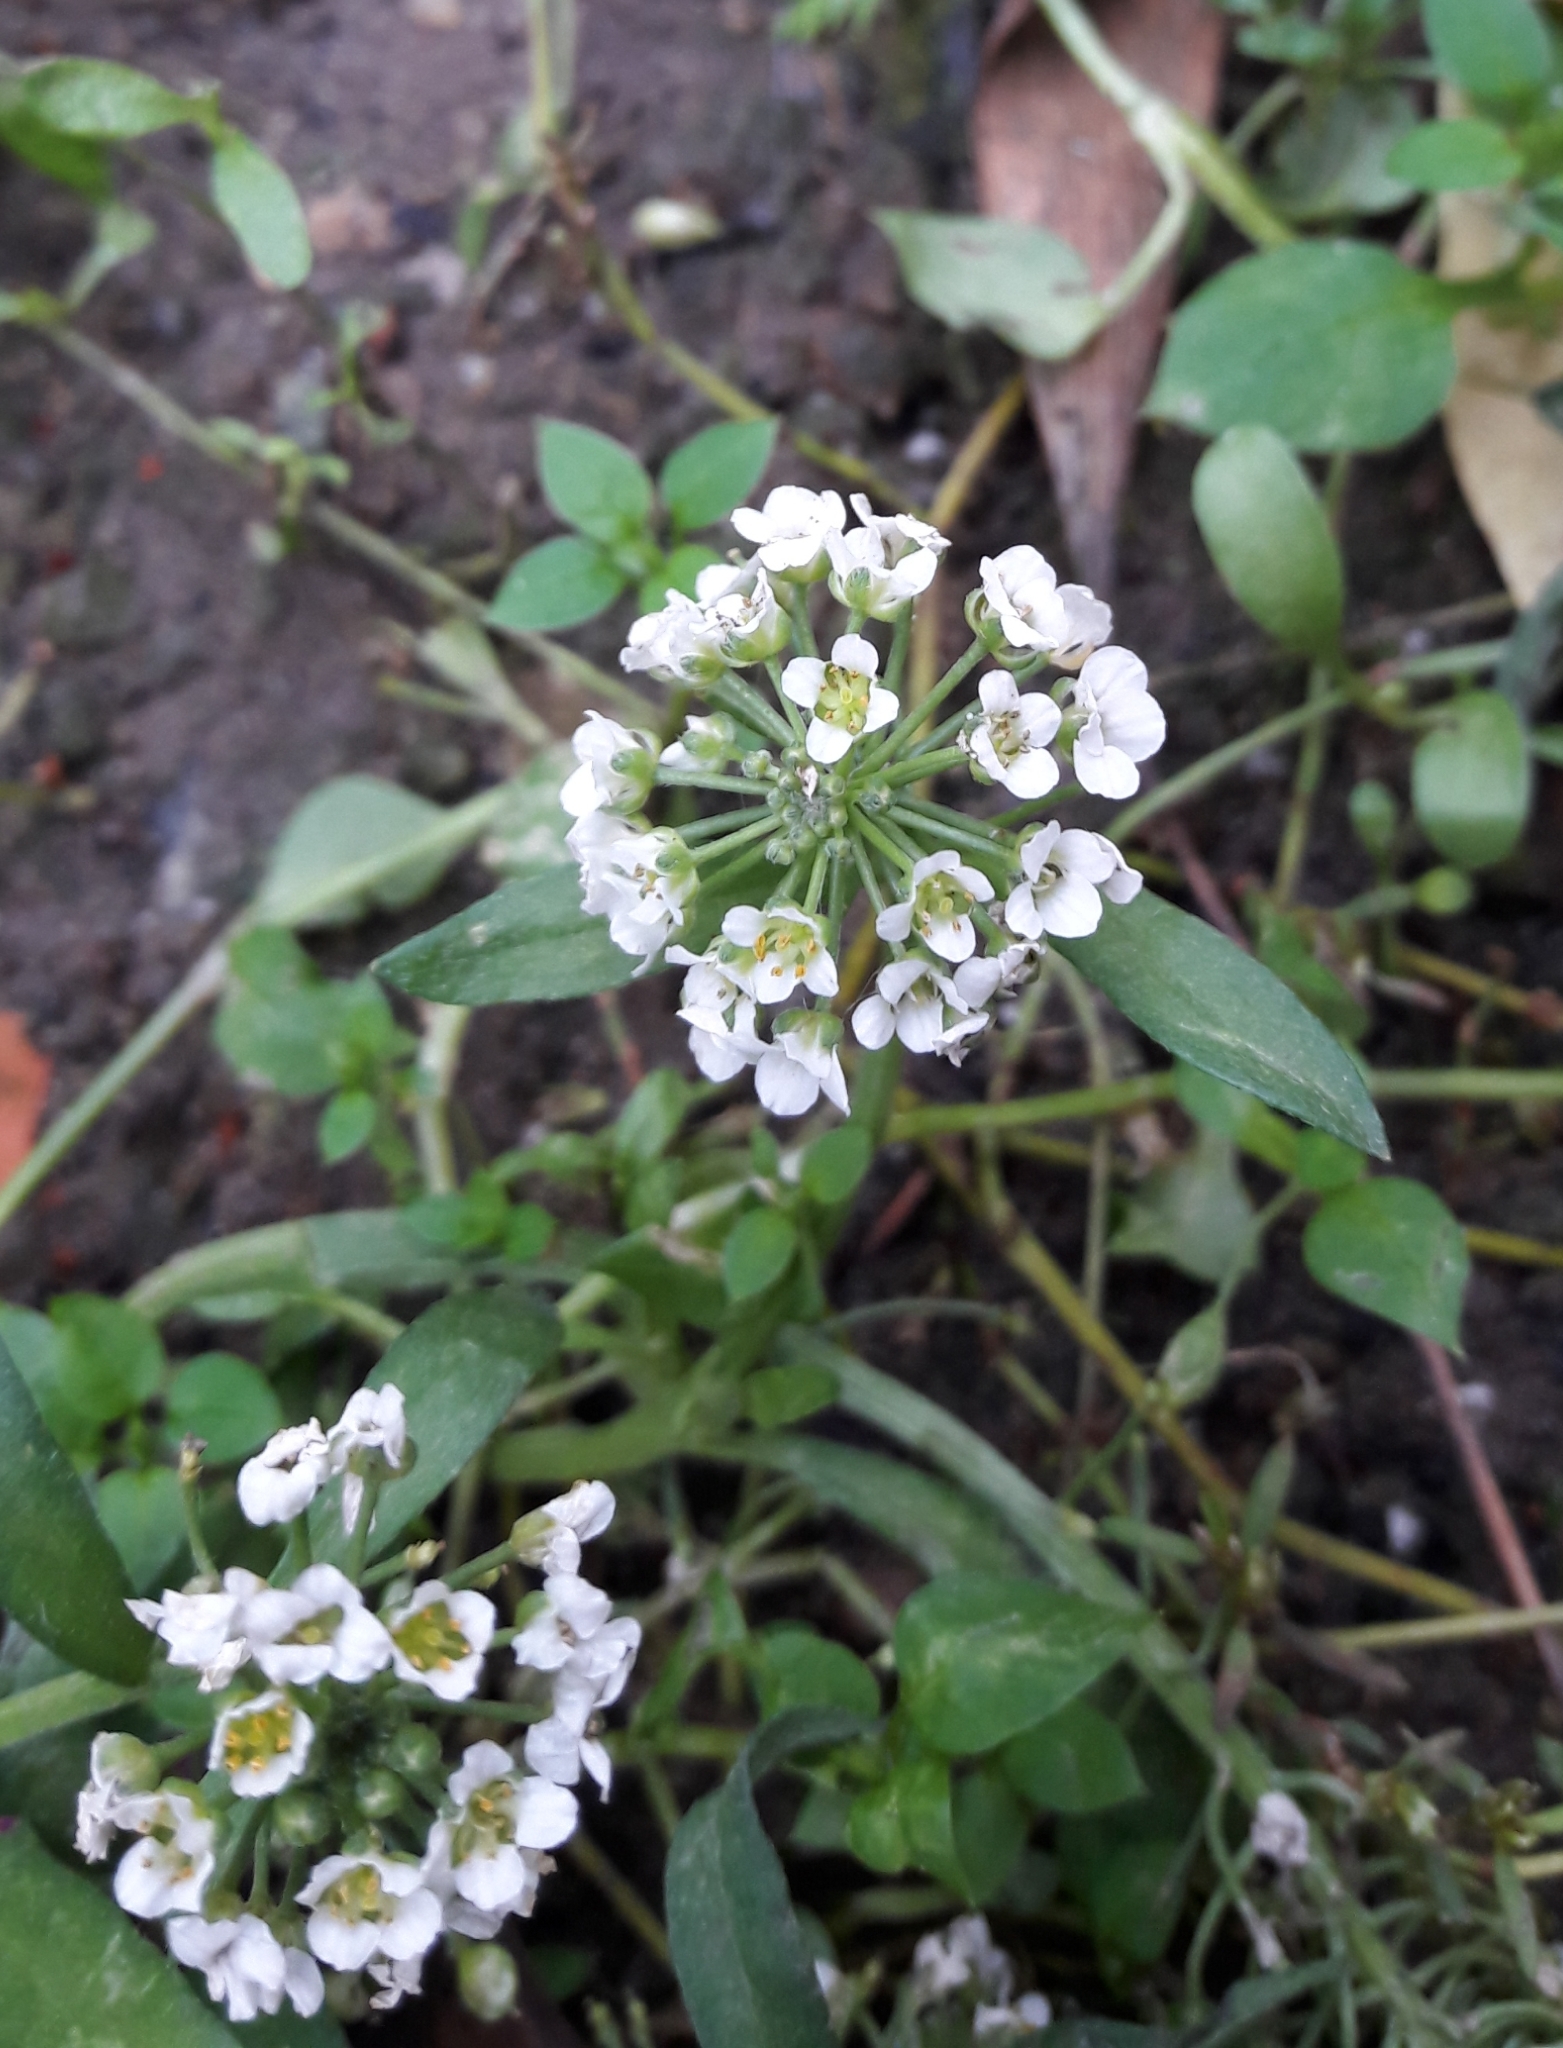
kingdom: Plantae
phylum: Tracheophyta
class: Magnoliopsida
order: Brassicales
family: Brassicaceae
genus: Lobularia
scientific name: Lobularia maritima
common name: Sweet alison
